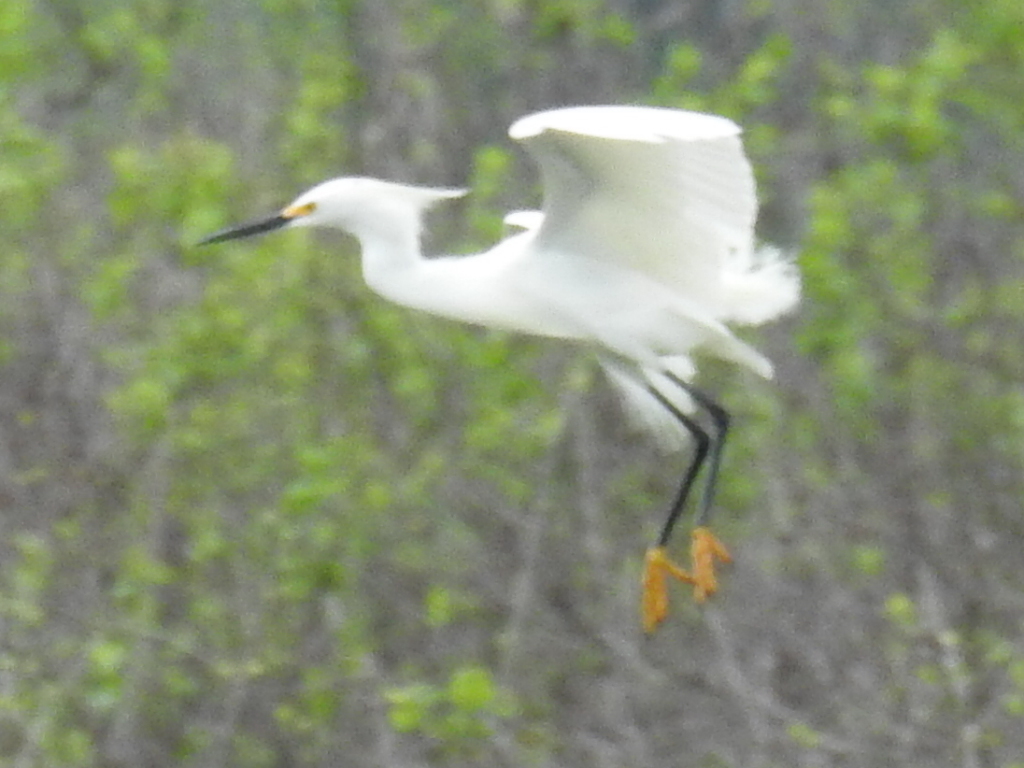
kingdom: Animalia
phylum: Chordata
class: Aves
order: Pelecaniformes
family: Ardeidae
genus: Egretta
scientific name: Egretta thula
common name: Snowy egret
